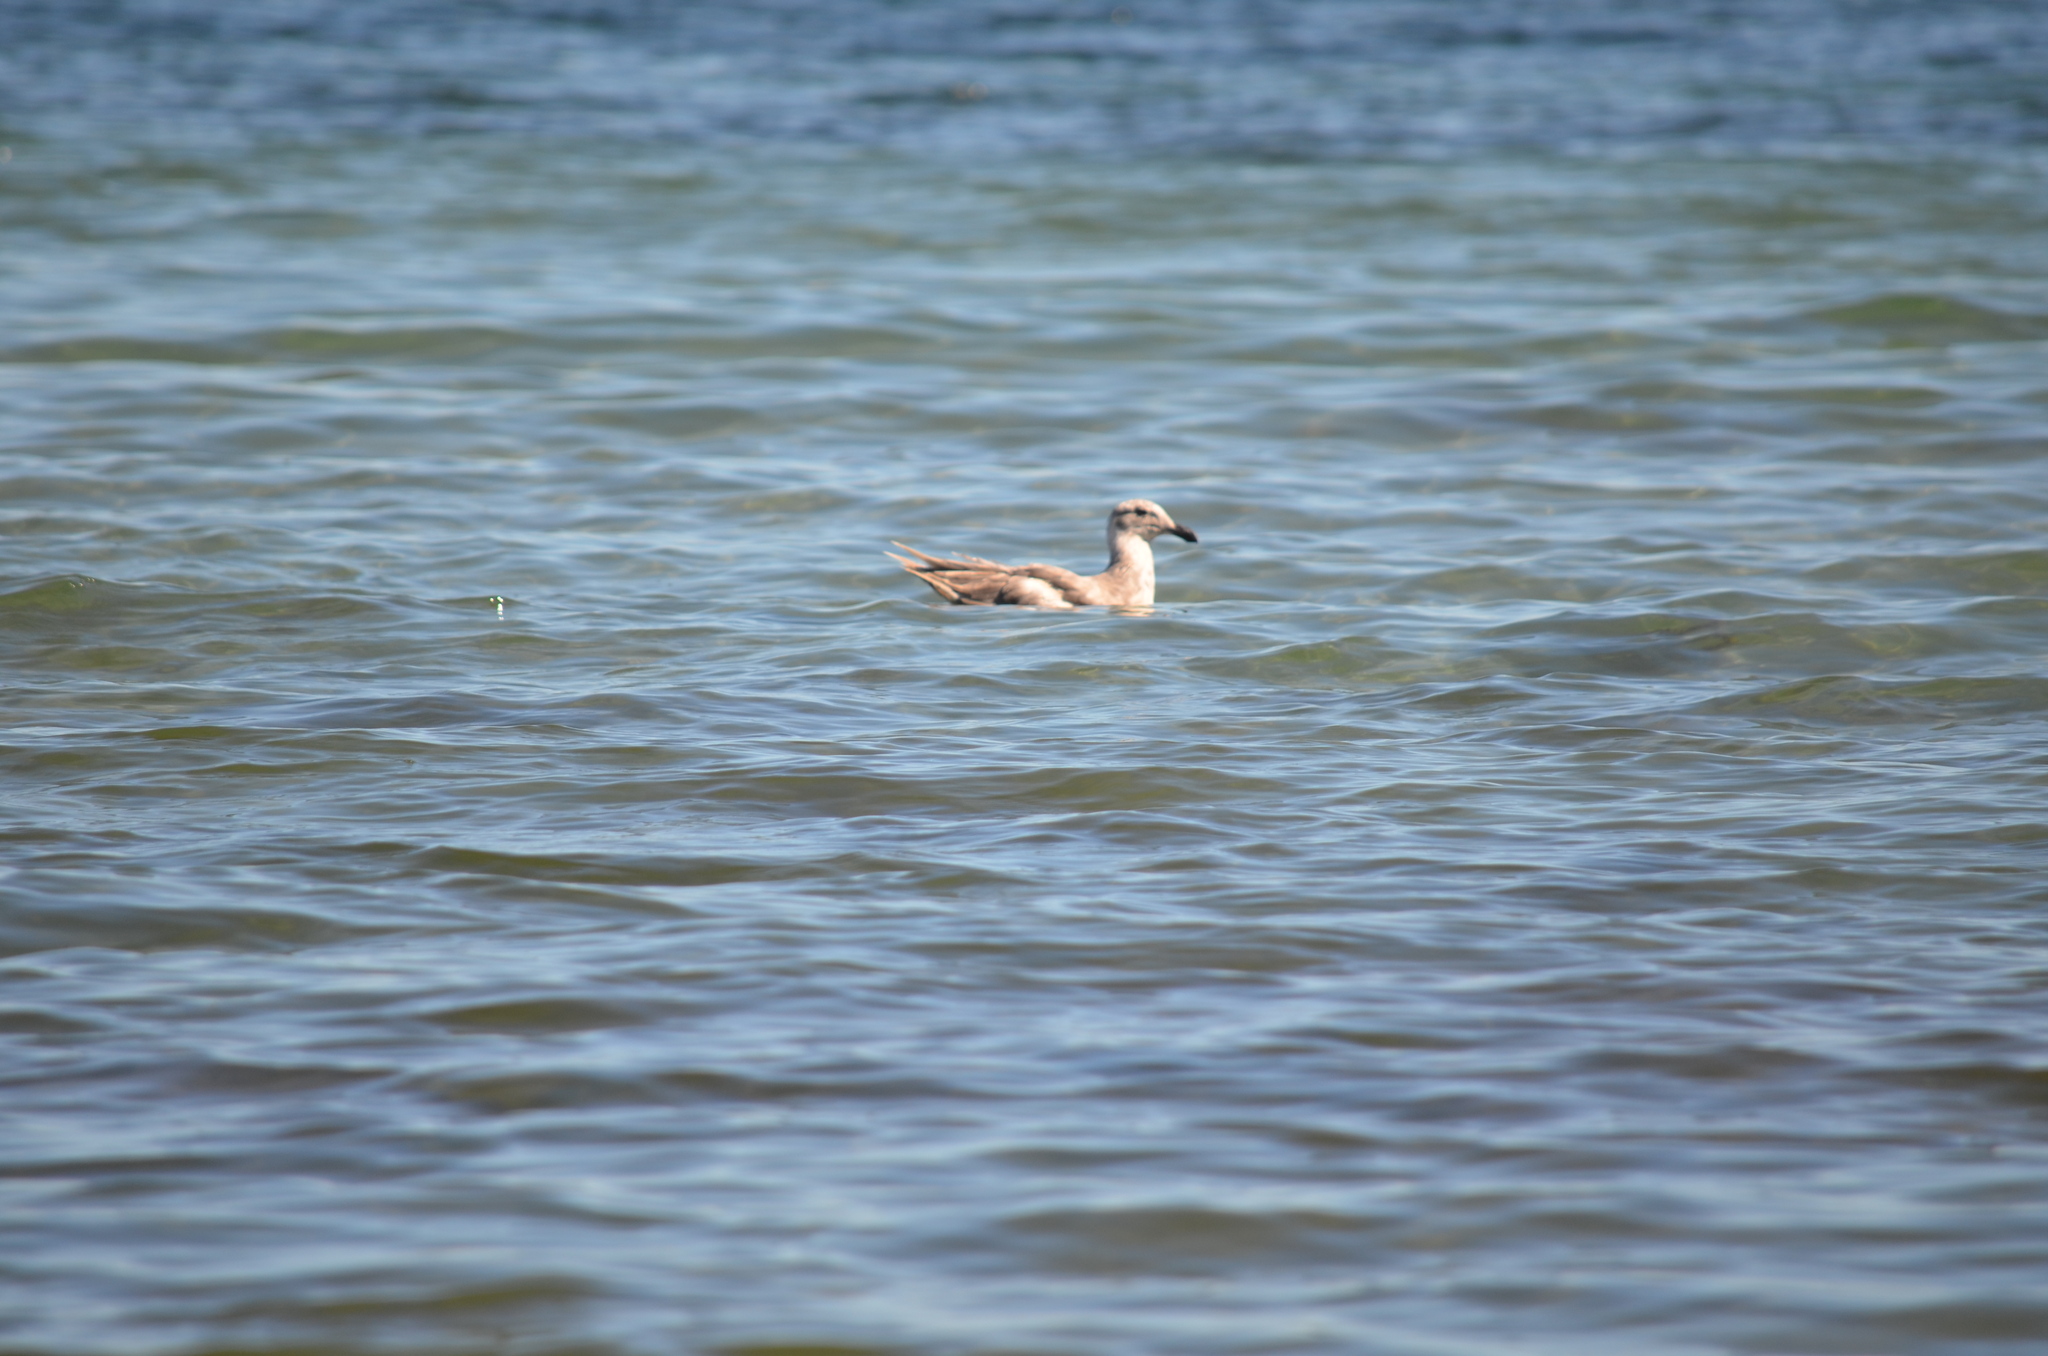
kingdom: Animalia
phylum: Chordata
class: Aves
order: Charadriiformes
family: Laridae
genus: Larus
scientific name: Larus
